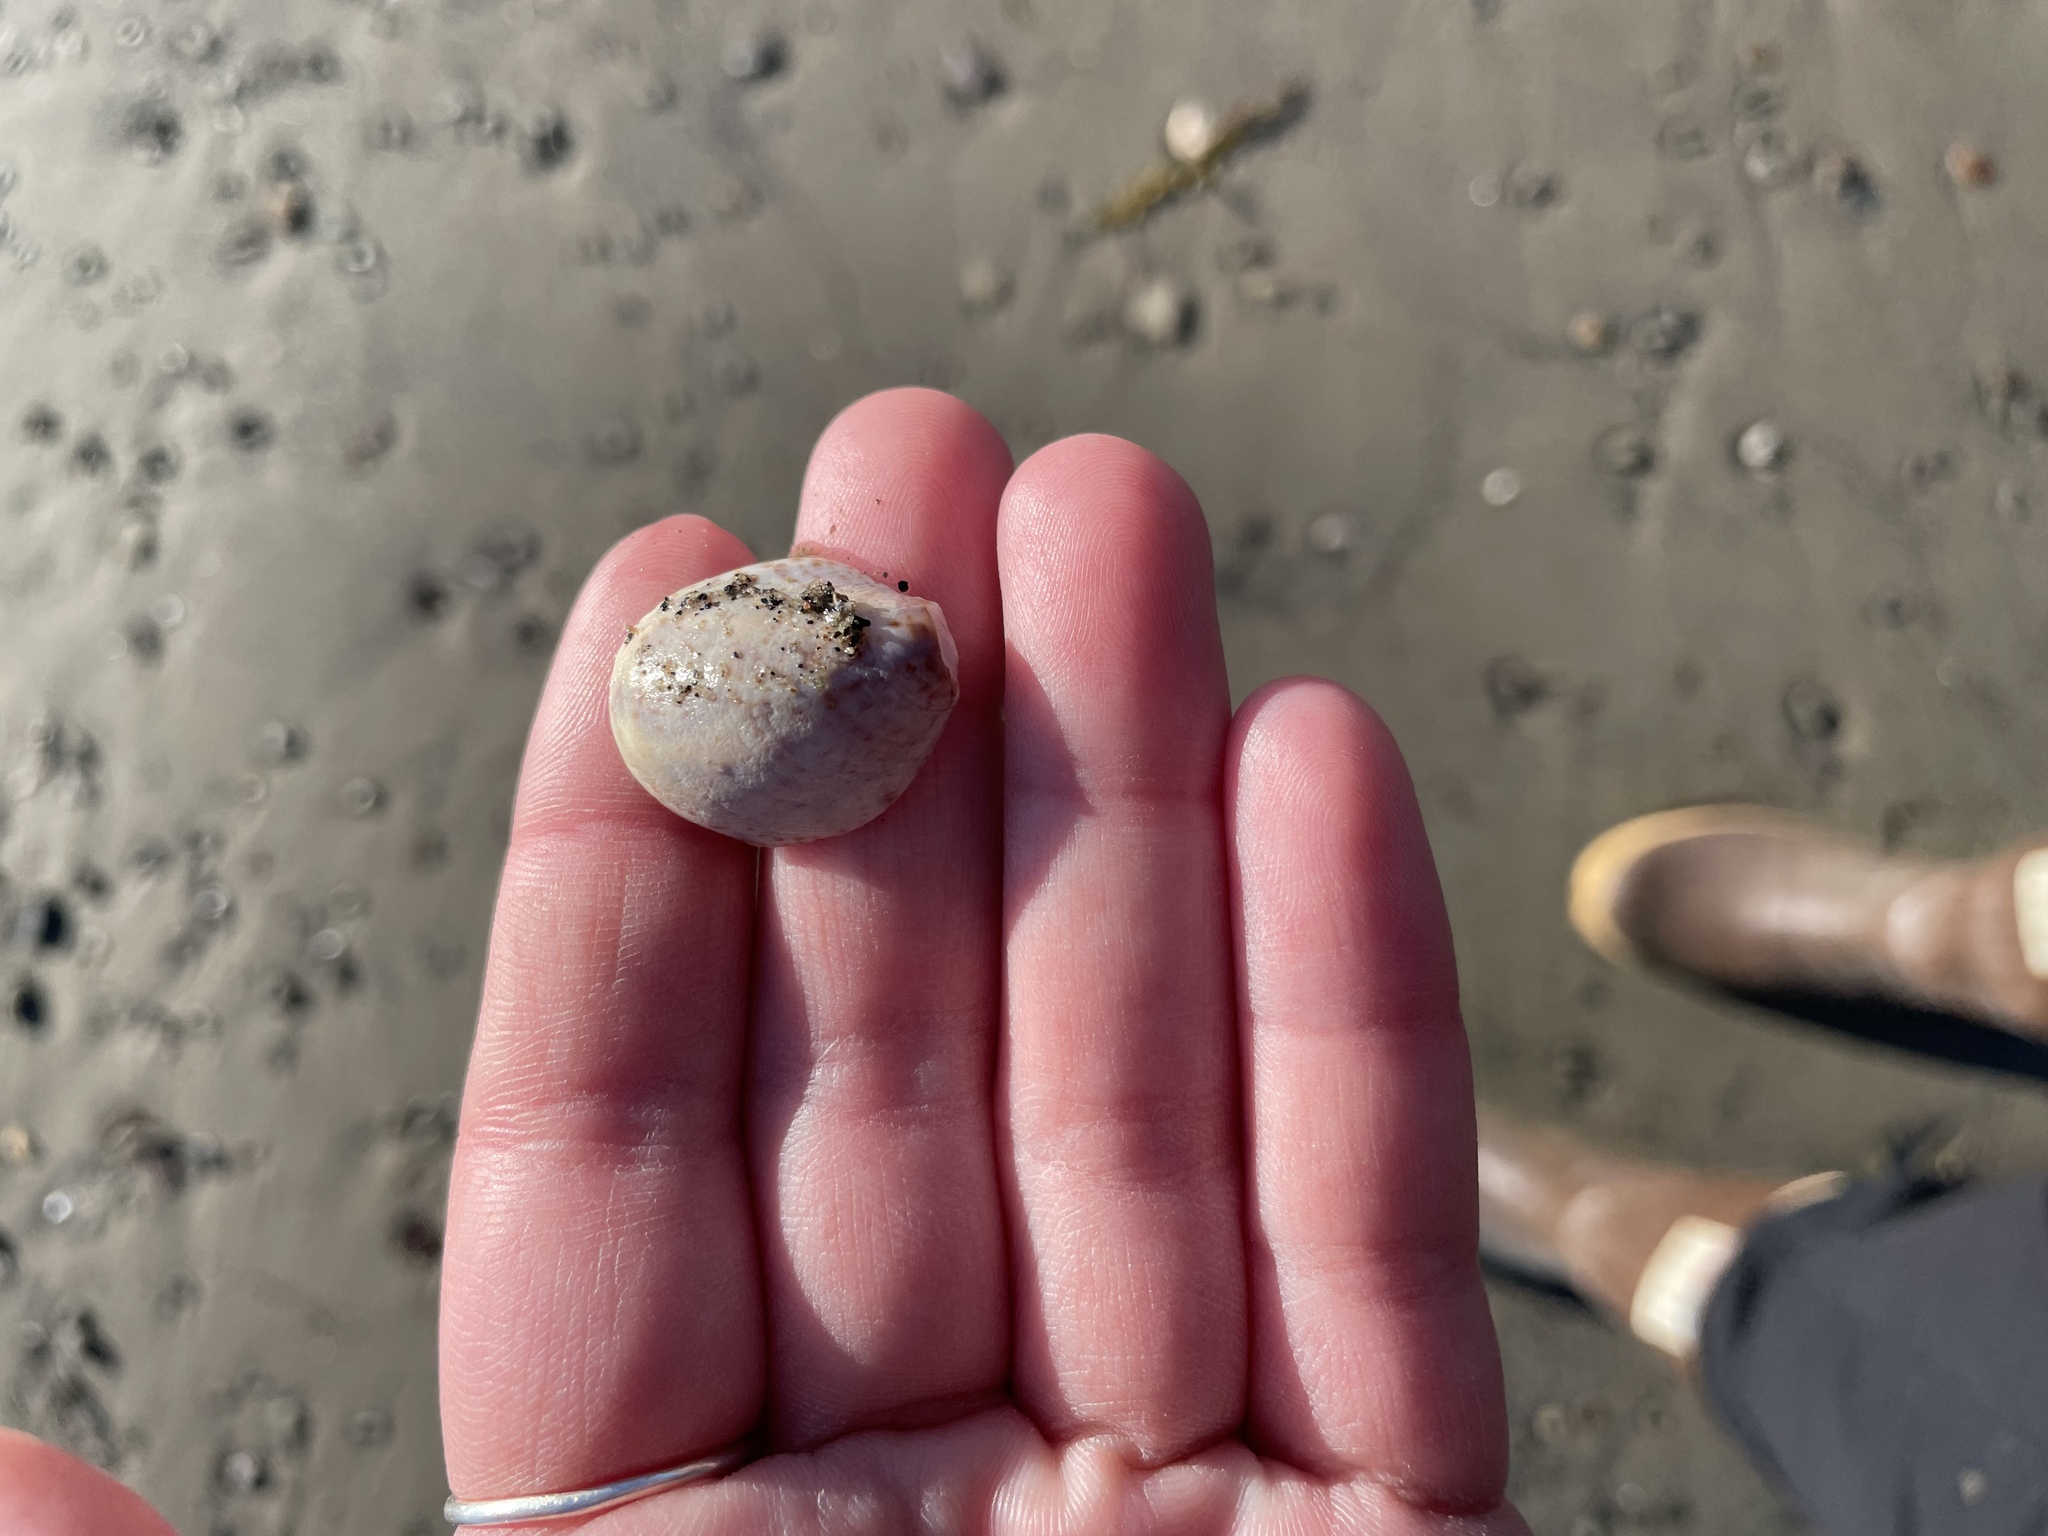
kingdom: Animalia
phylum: Mollusca
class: Gastropoda
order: Littorinimorpha
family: Calyptraeidae
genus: Crepidula
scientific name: Crepidula fornicata
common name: Slipper limpet
